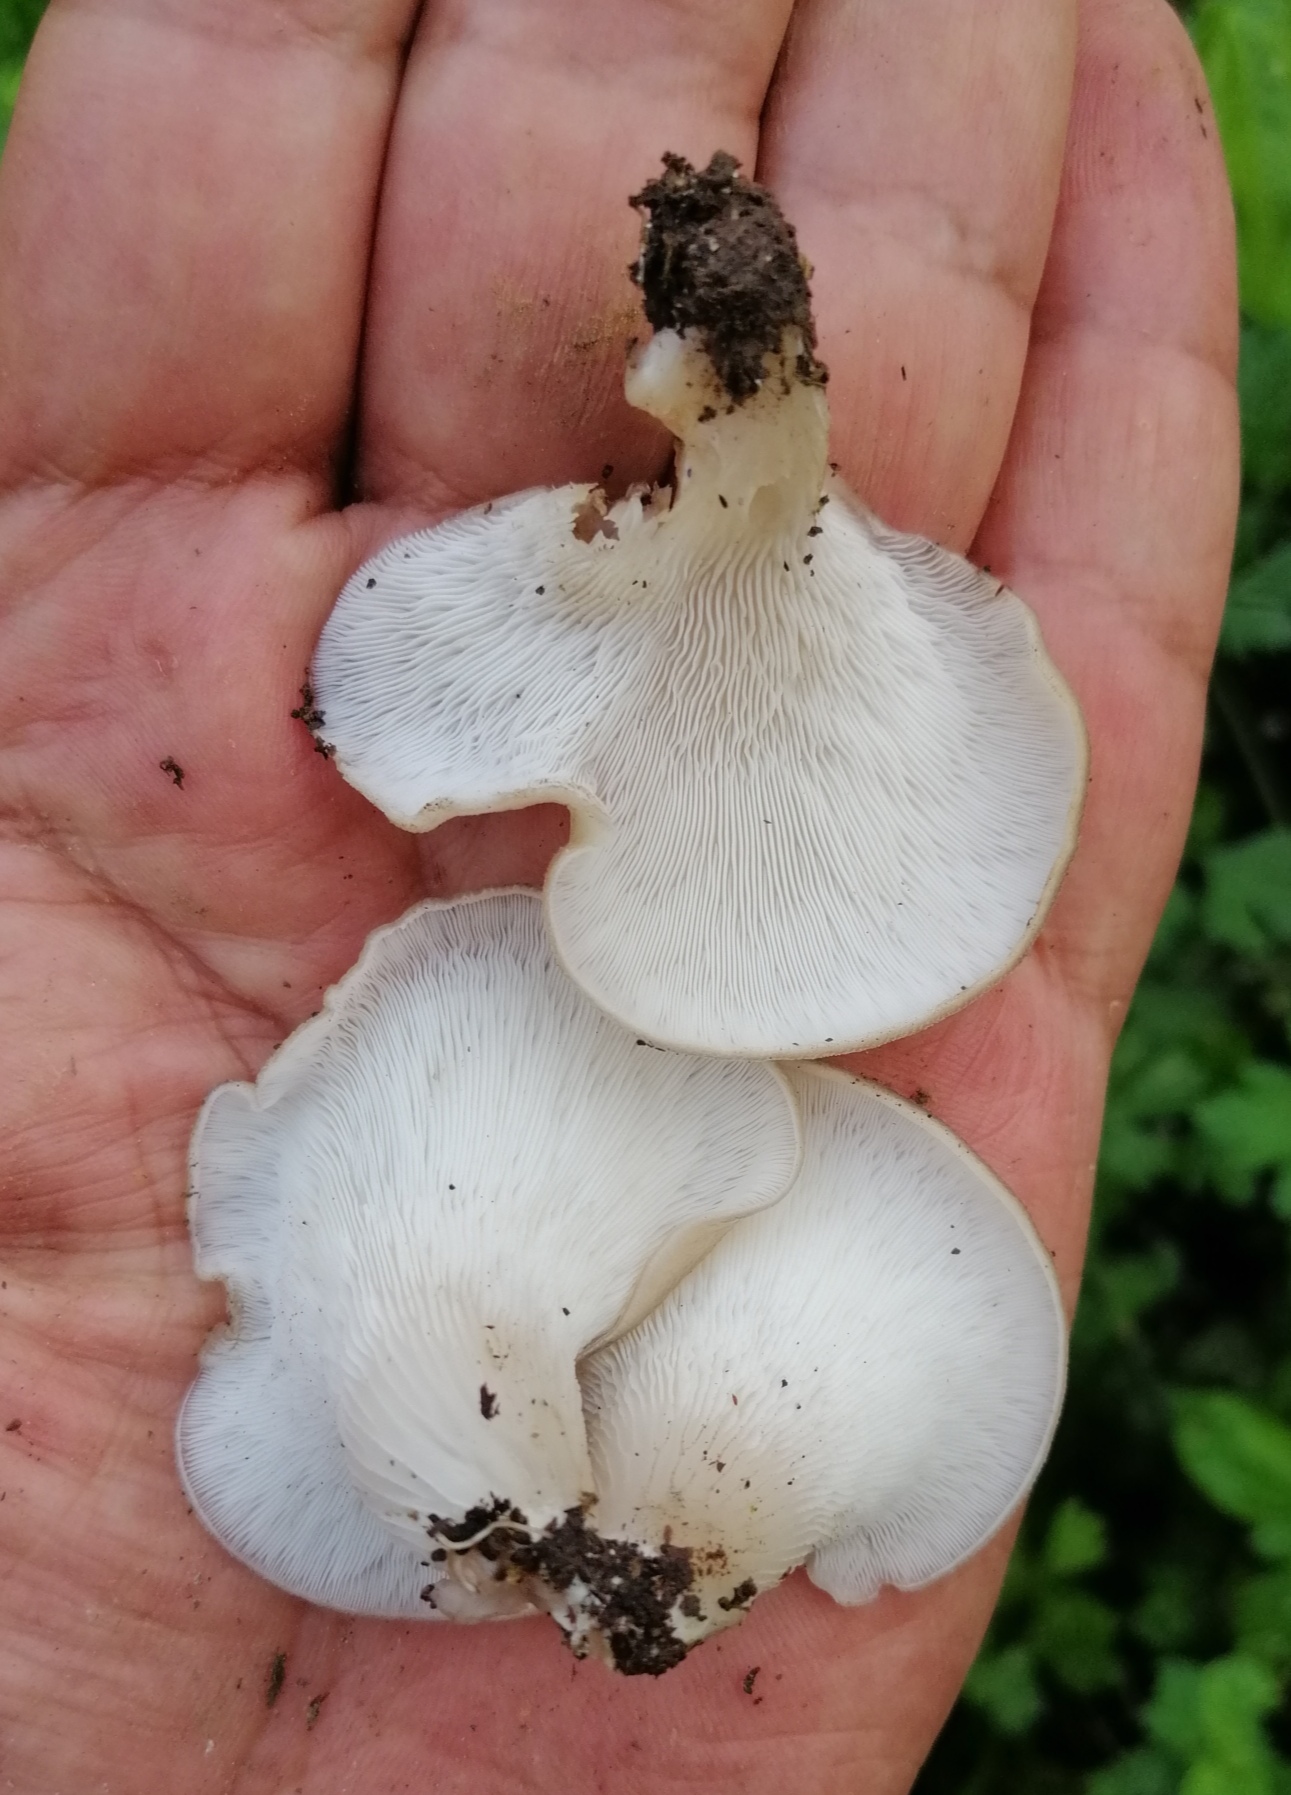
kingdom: Fungi
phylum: Basidiomycota
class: Agaricomycetes
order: Agaricales
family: Pleurotaceae
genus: Hohenbuehelia
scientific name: Hohenbuehelia petaloides
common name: Shoehorn oyster
